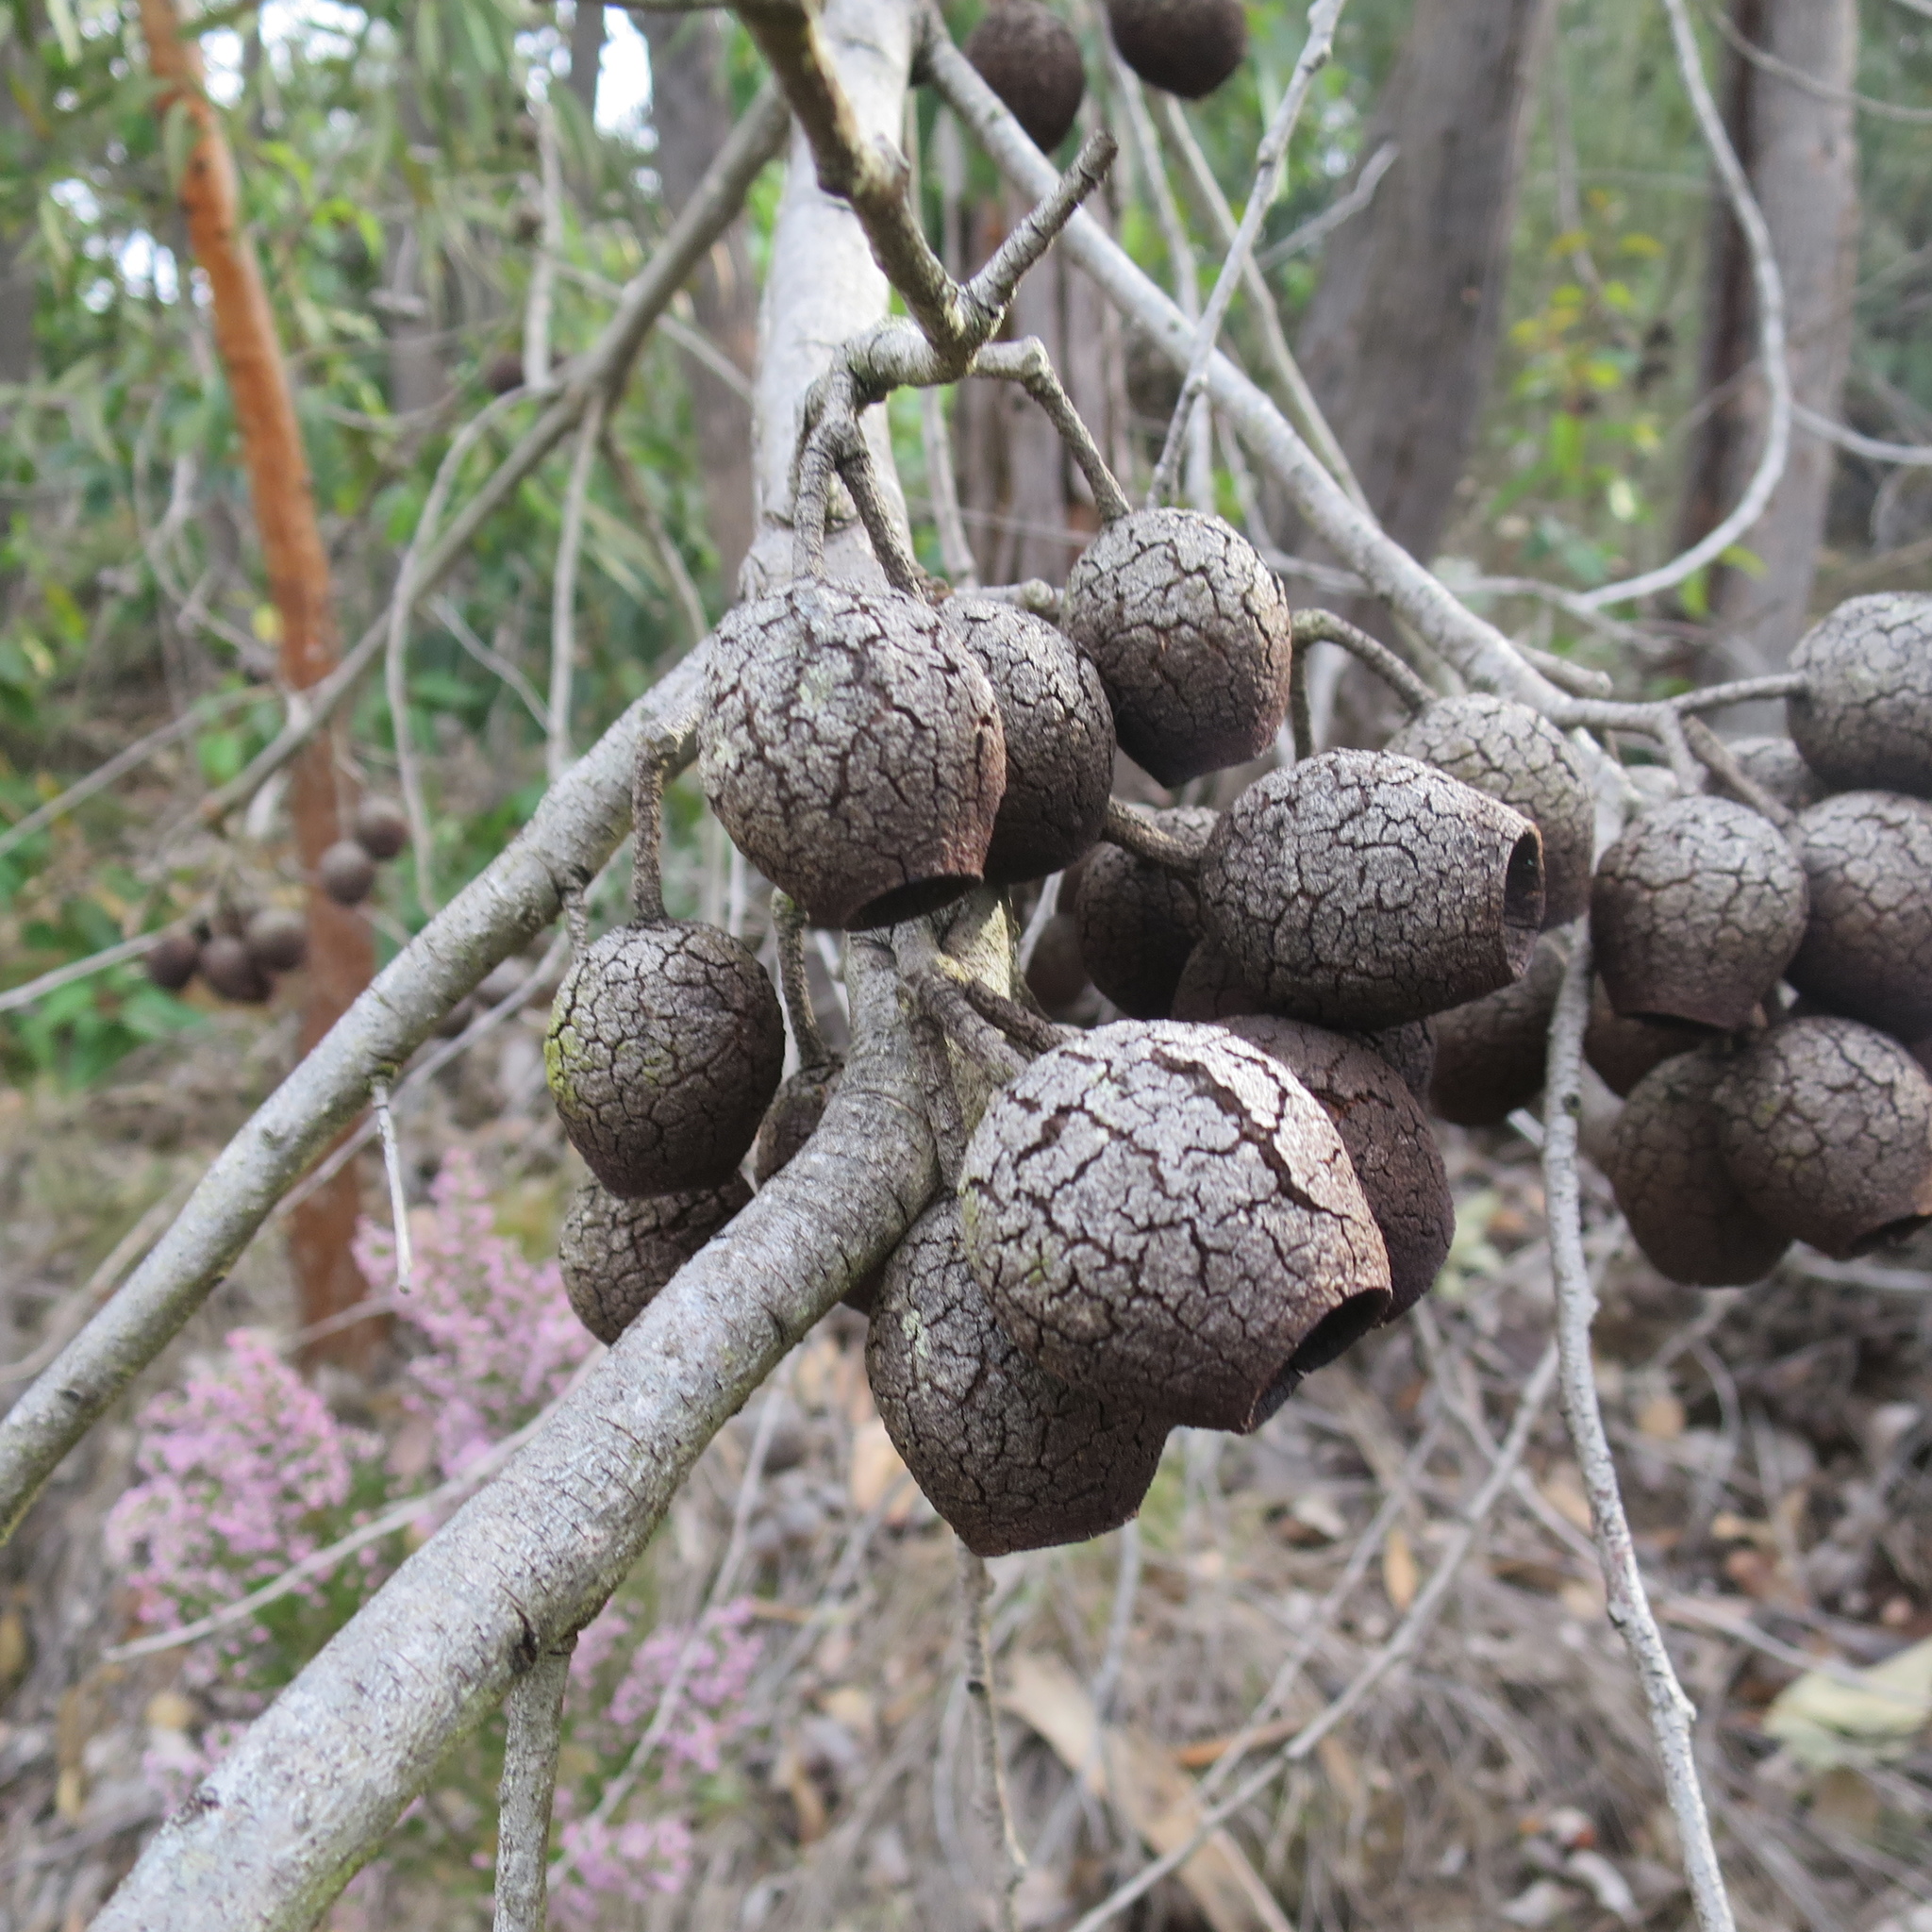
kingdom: Plantae
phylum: Tracheophyta
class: Magnoliopsida
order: Myrtales
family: Myrtaceae
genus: Corymbia
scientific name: Corymbia ficifolia
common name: Redflower gum
